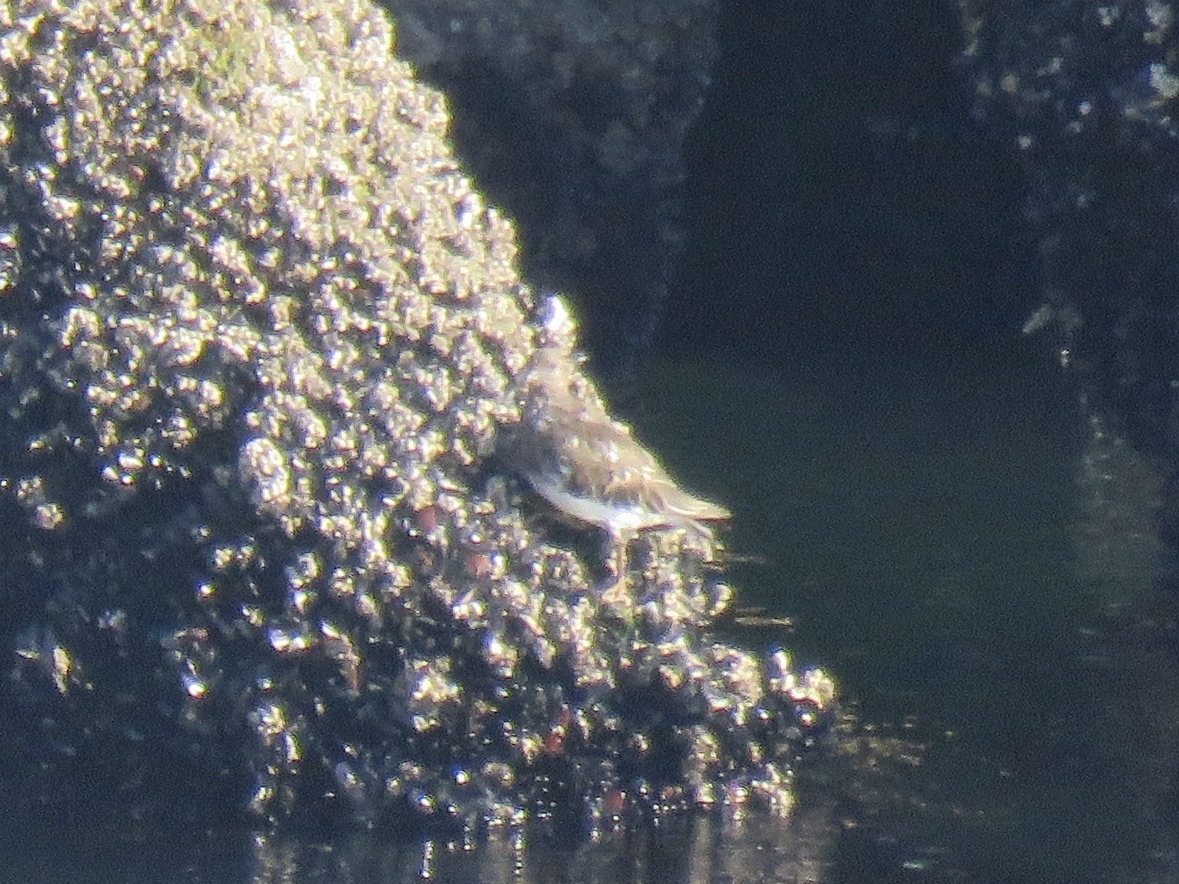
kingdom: Animalia
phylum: Chordata
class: Aves
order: Charadriiformes
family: Scolopacidae
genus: Arenaria
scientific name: Arenaria melanocephala
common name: Black turnstone
